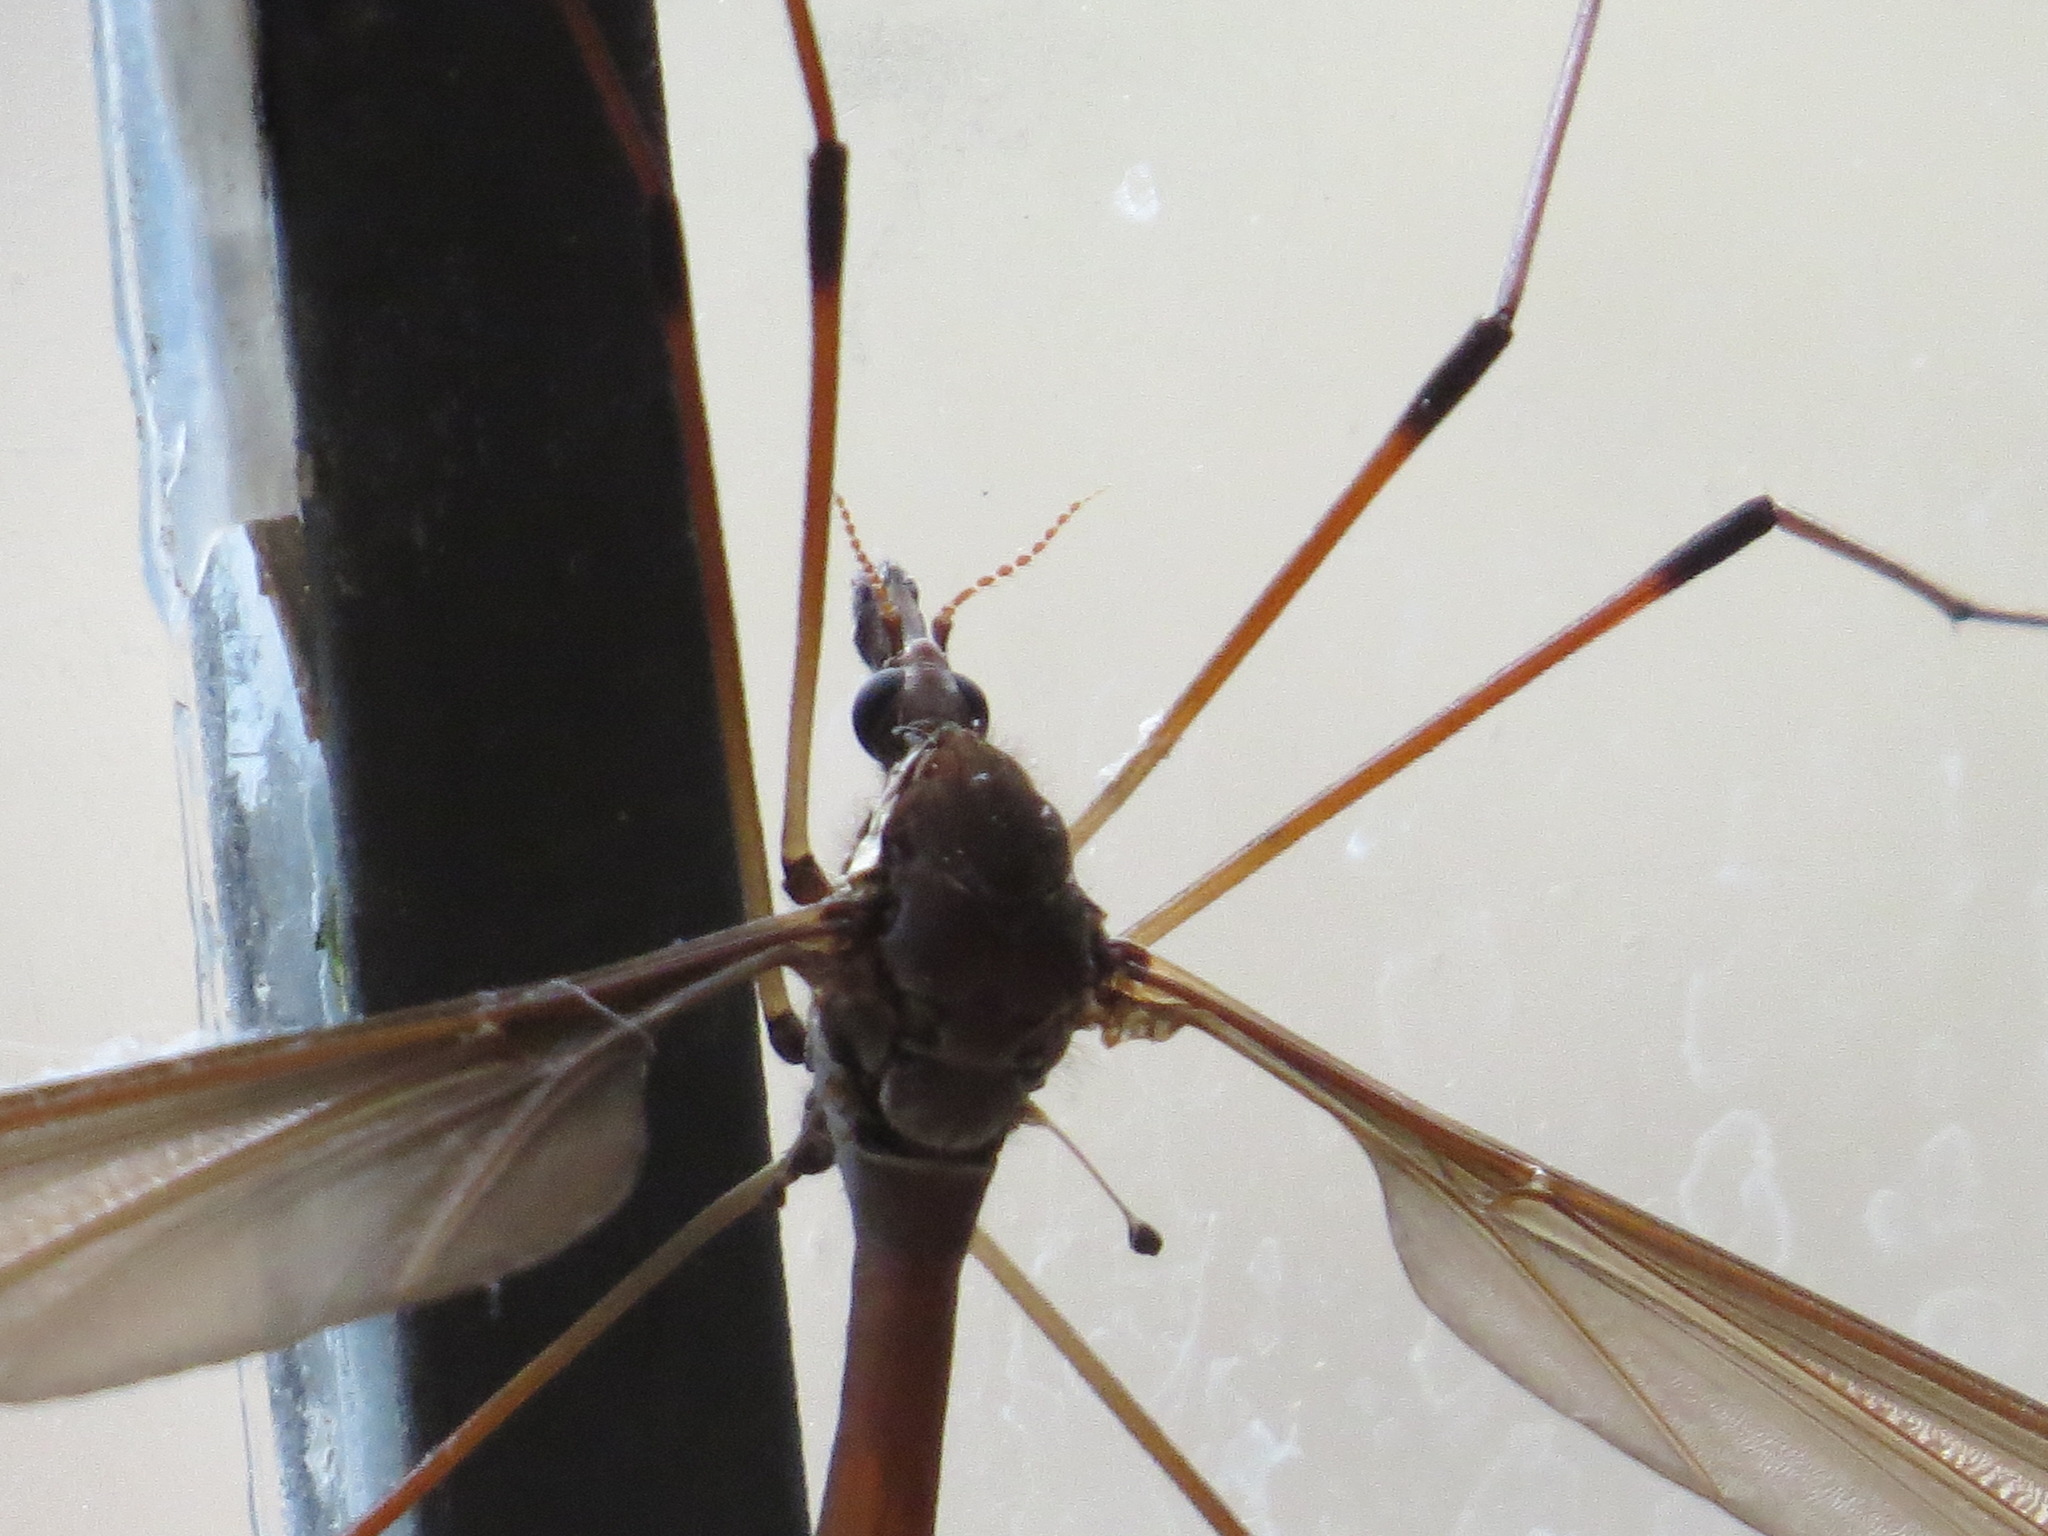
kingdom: Animalia
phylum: Arthropoda
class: Insecta
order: Diptera
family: Tipulidae
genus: Holorusia
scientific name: Holorusia hespera
